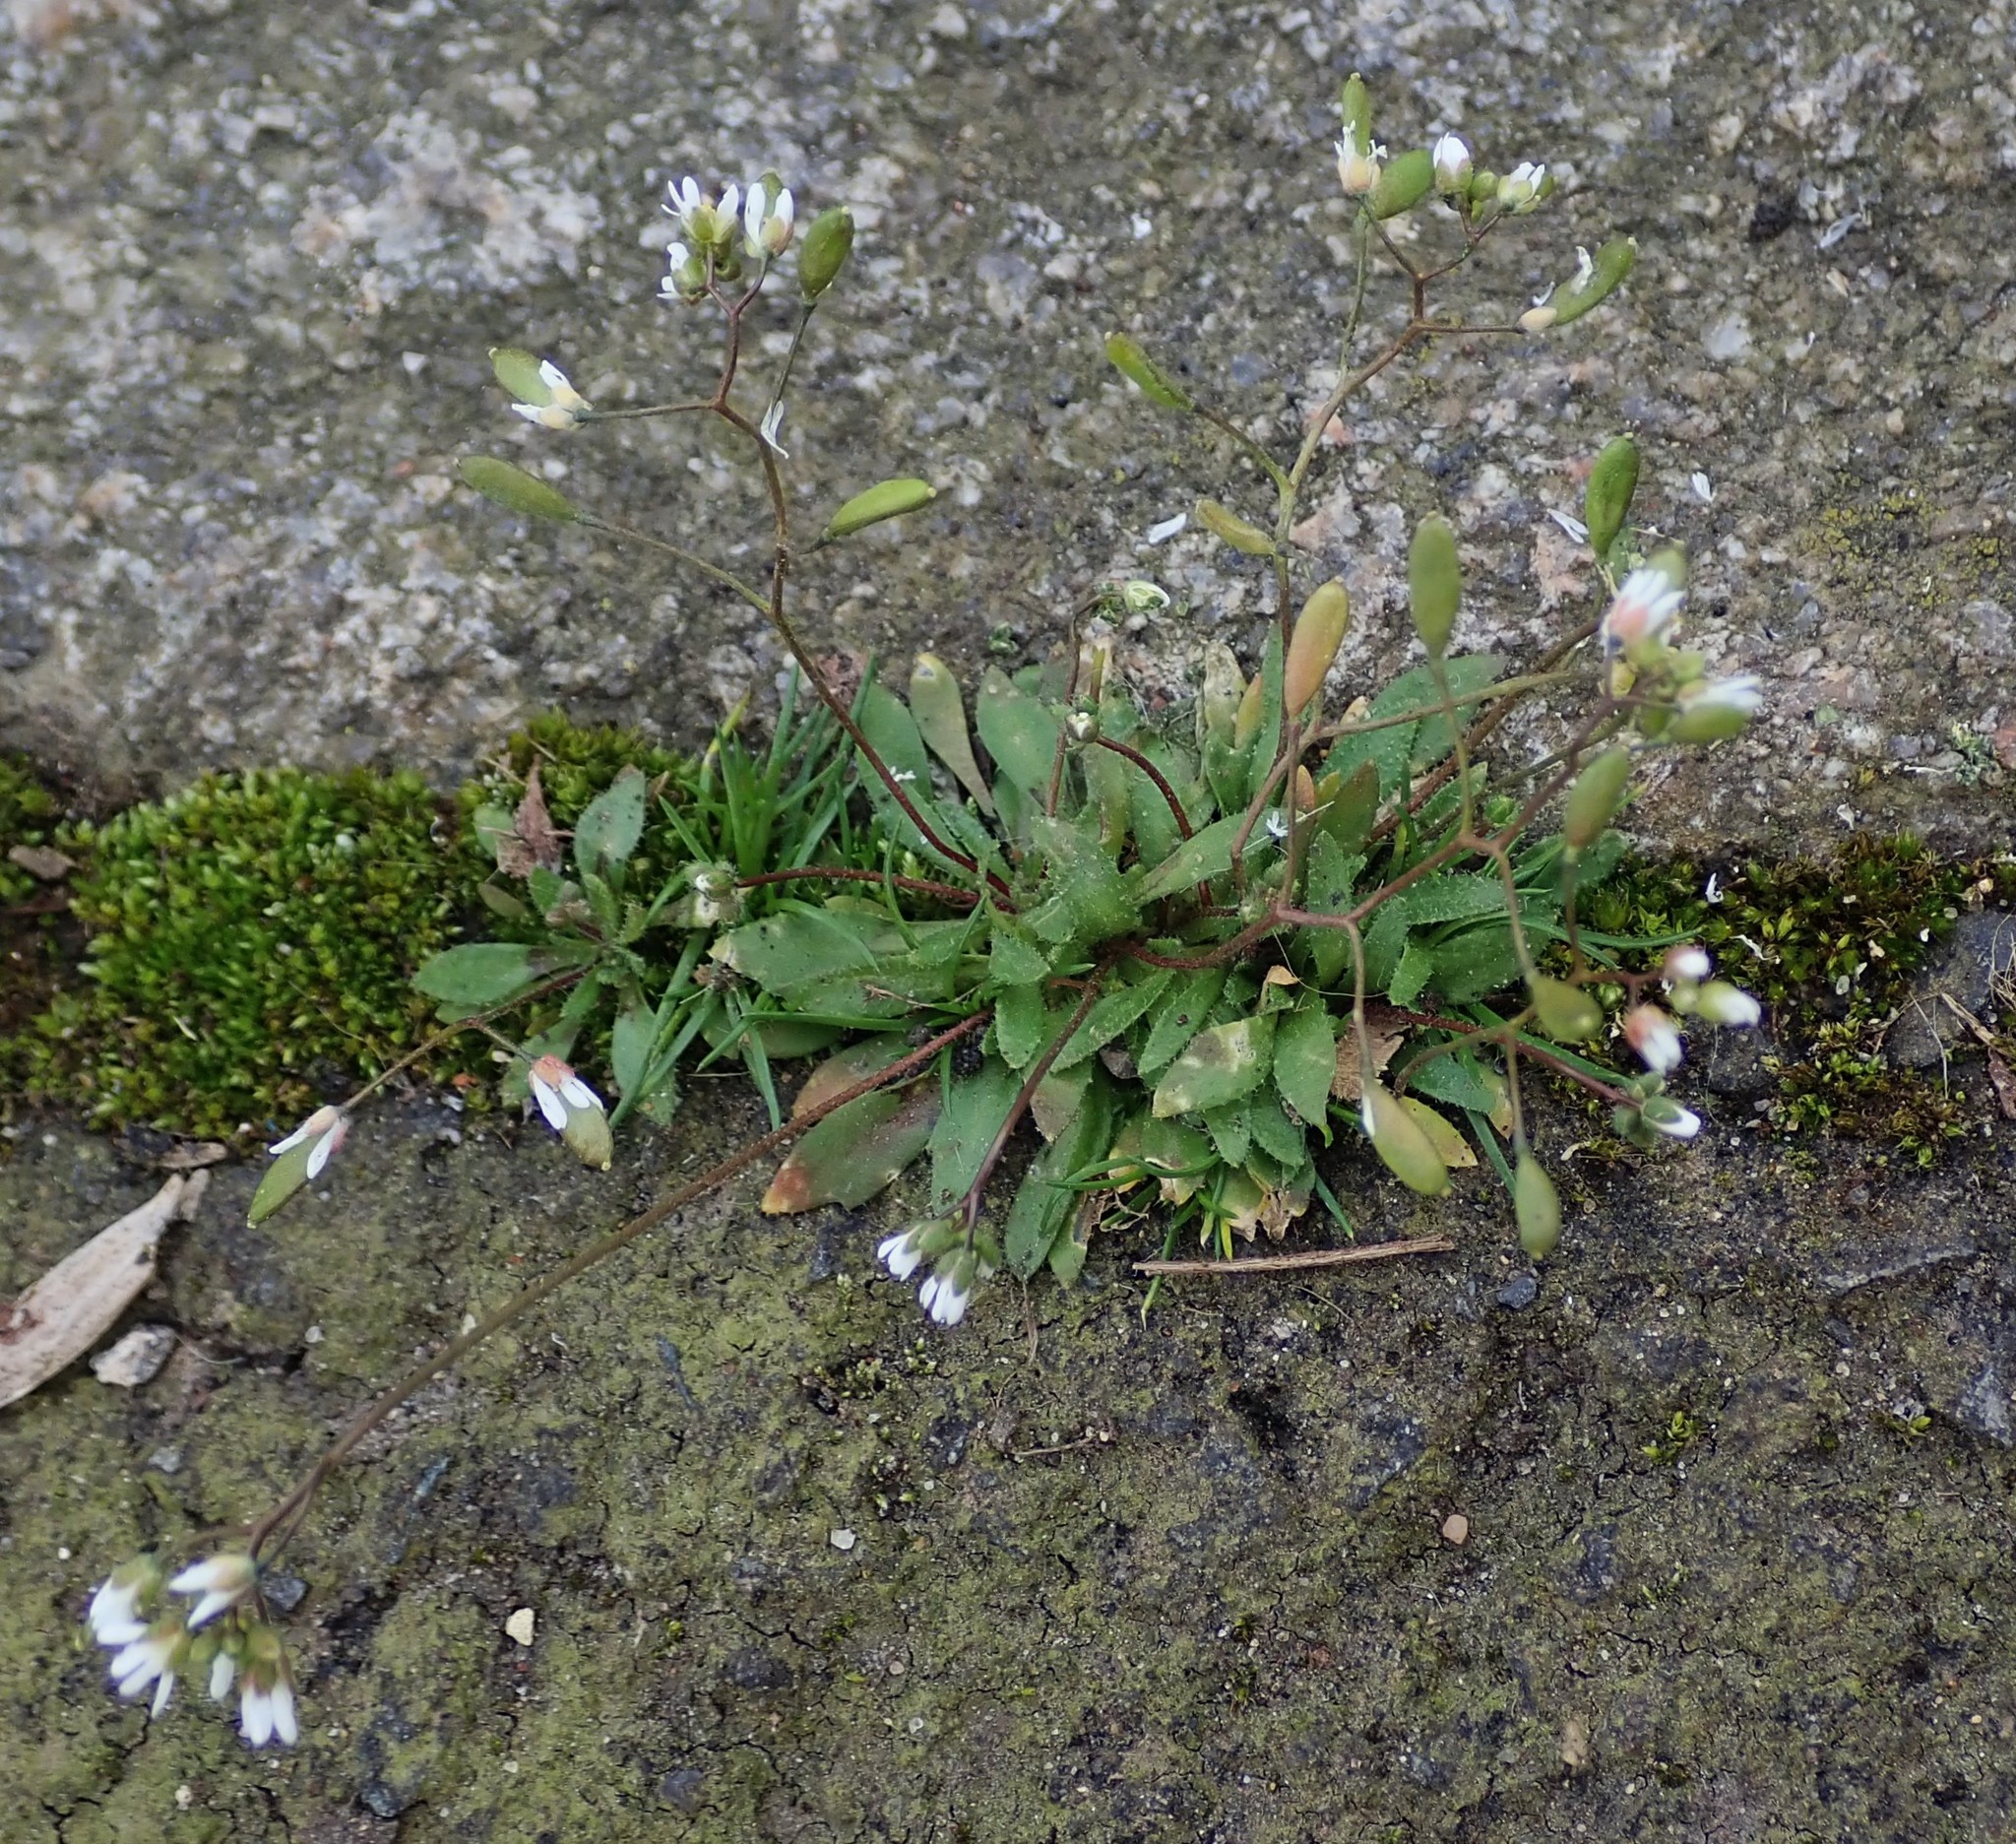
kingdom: Plantae
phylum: Tracheophyta
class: Magnoliopsida
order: Brassicales
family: Brassicaceae
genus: Draba
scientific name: Draba verna
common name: Spring draba
